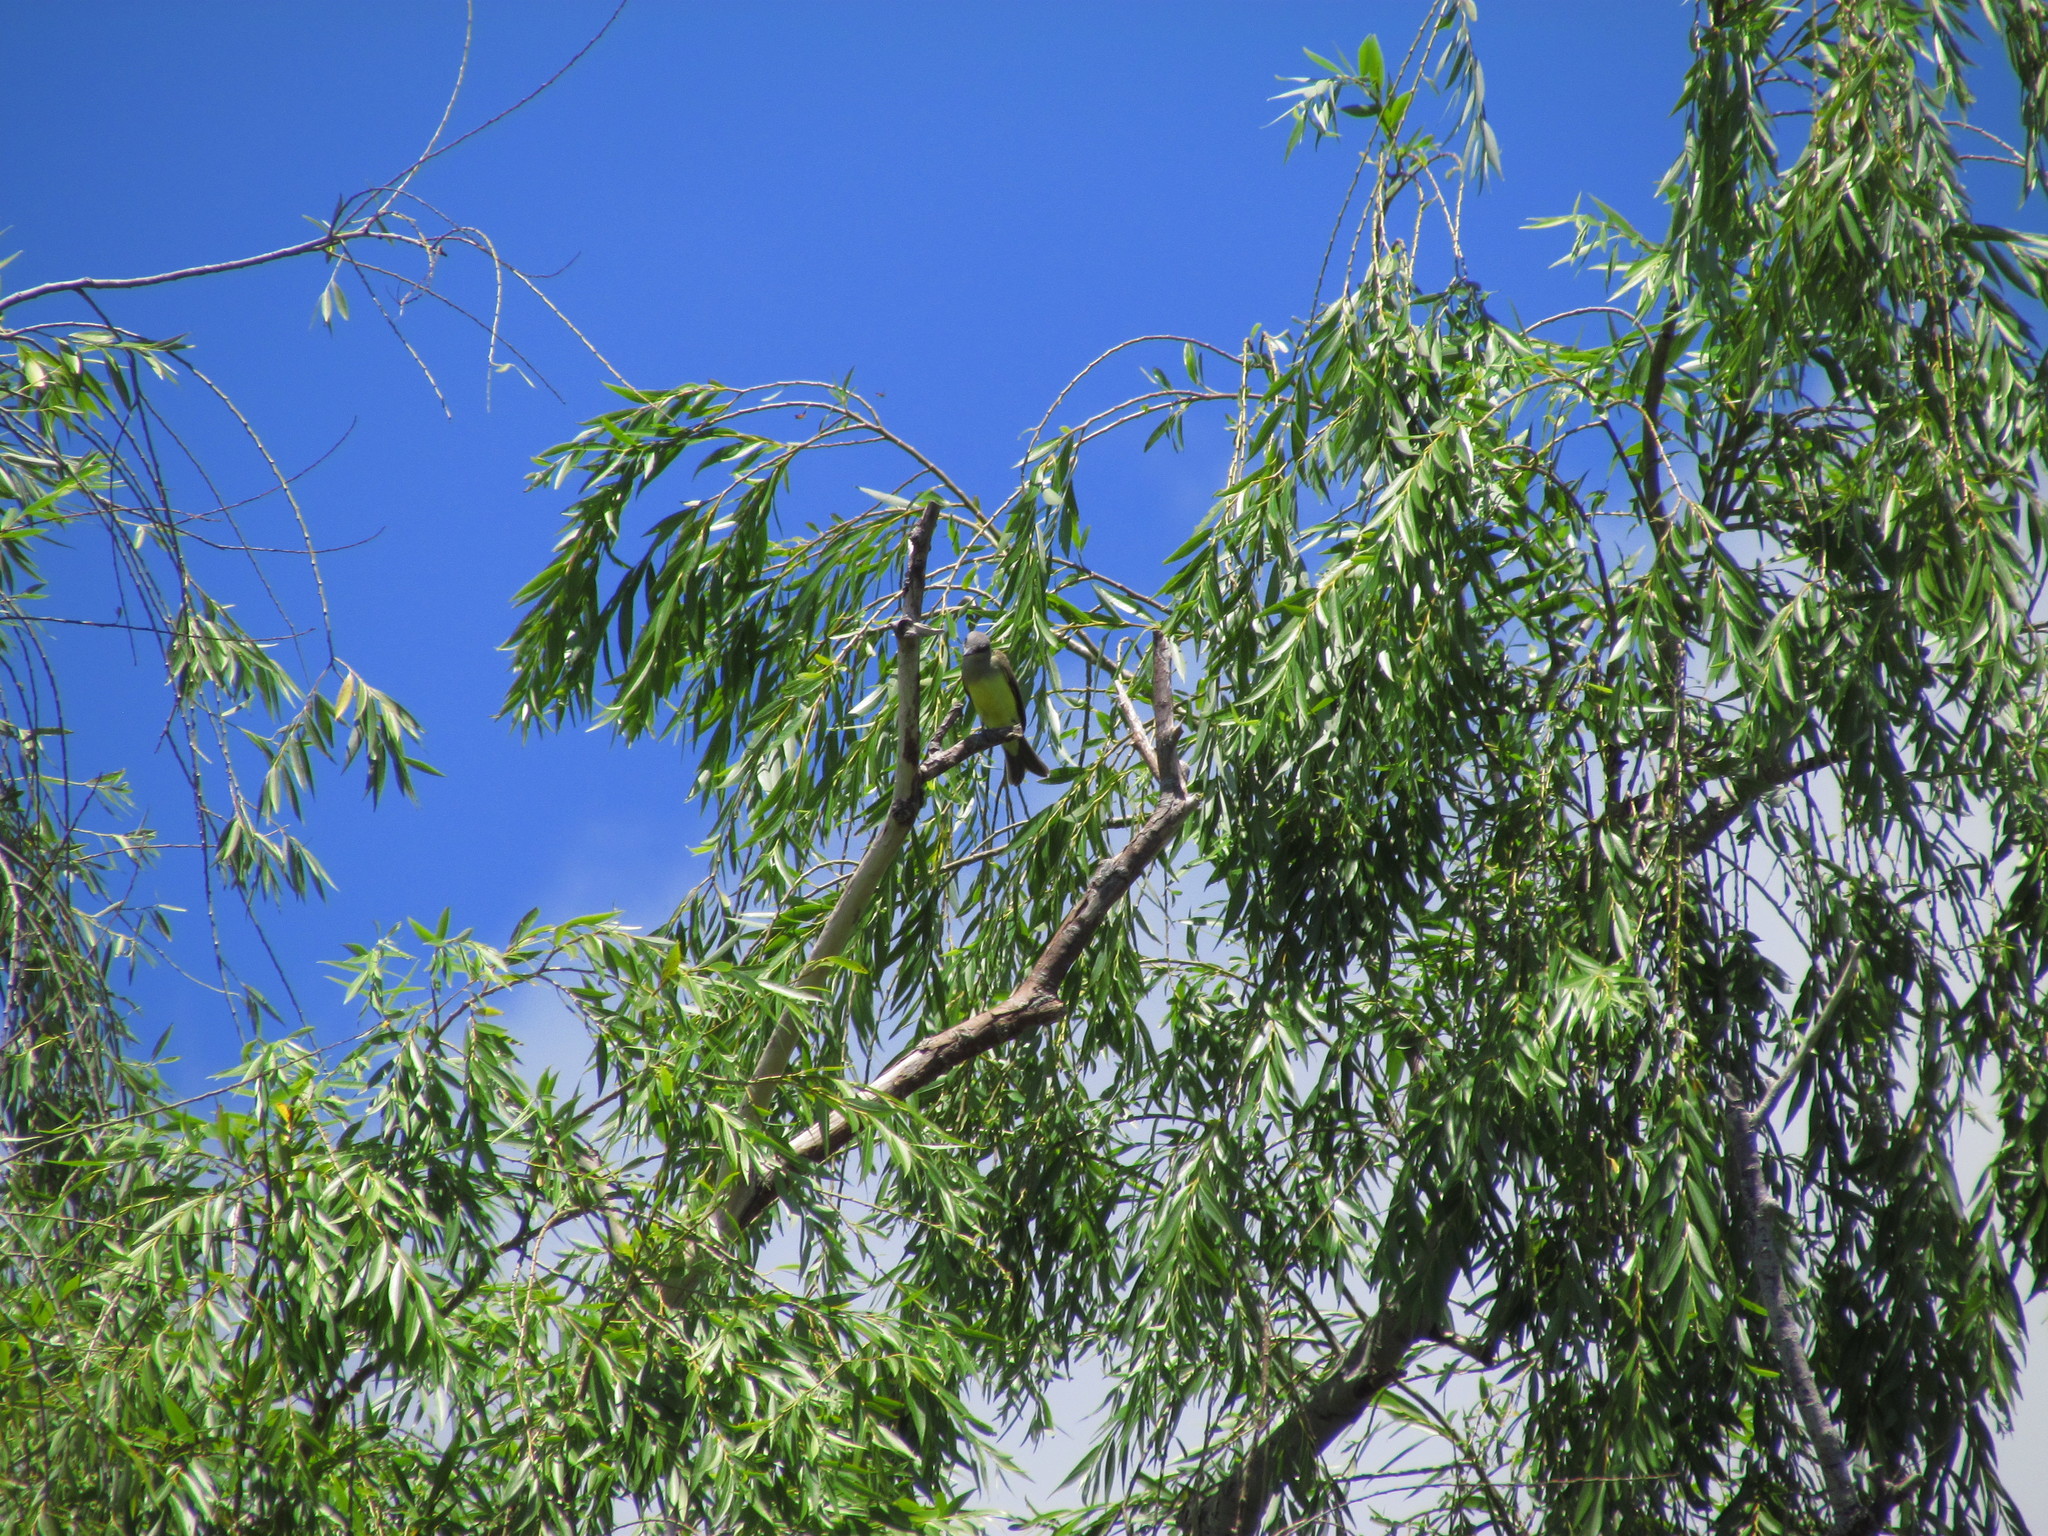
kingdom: Animalia
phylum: Chordata
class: Aves
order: Passeriformes
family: Tyrannidae
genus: Tyrannus
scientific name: Tyrannus melancholicus
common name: Tropical kingbird
